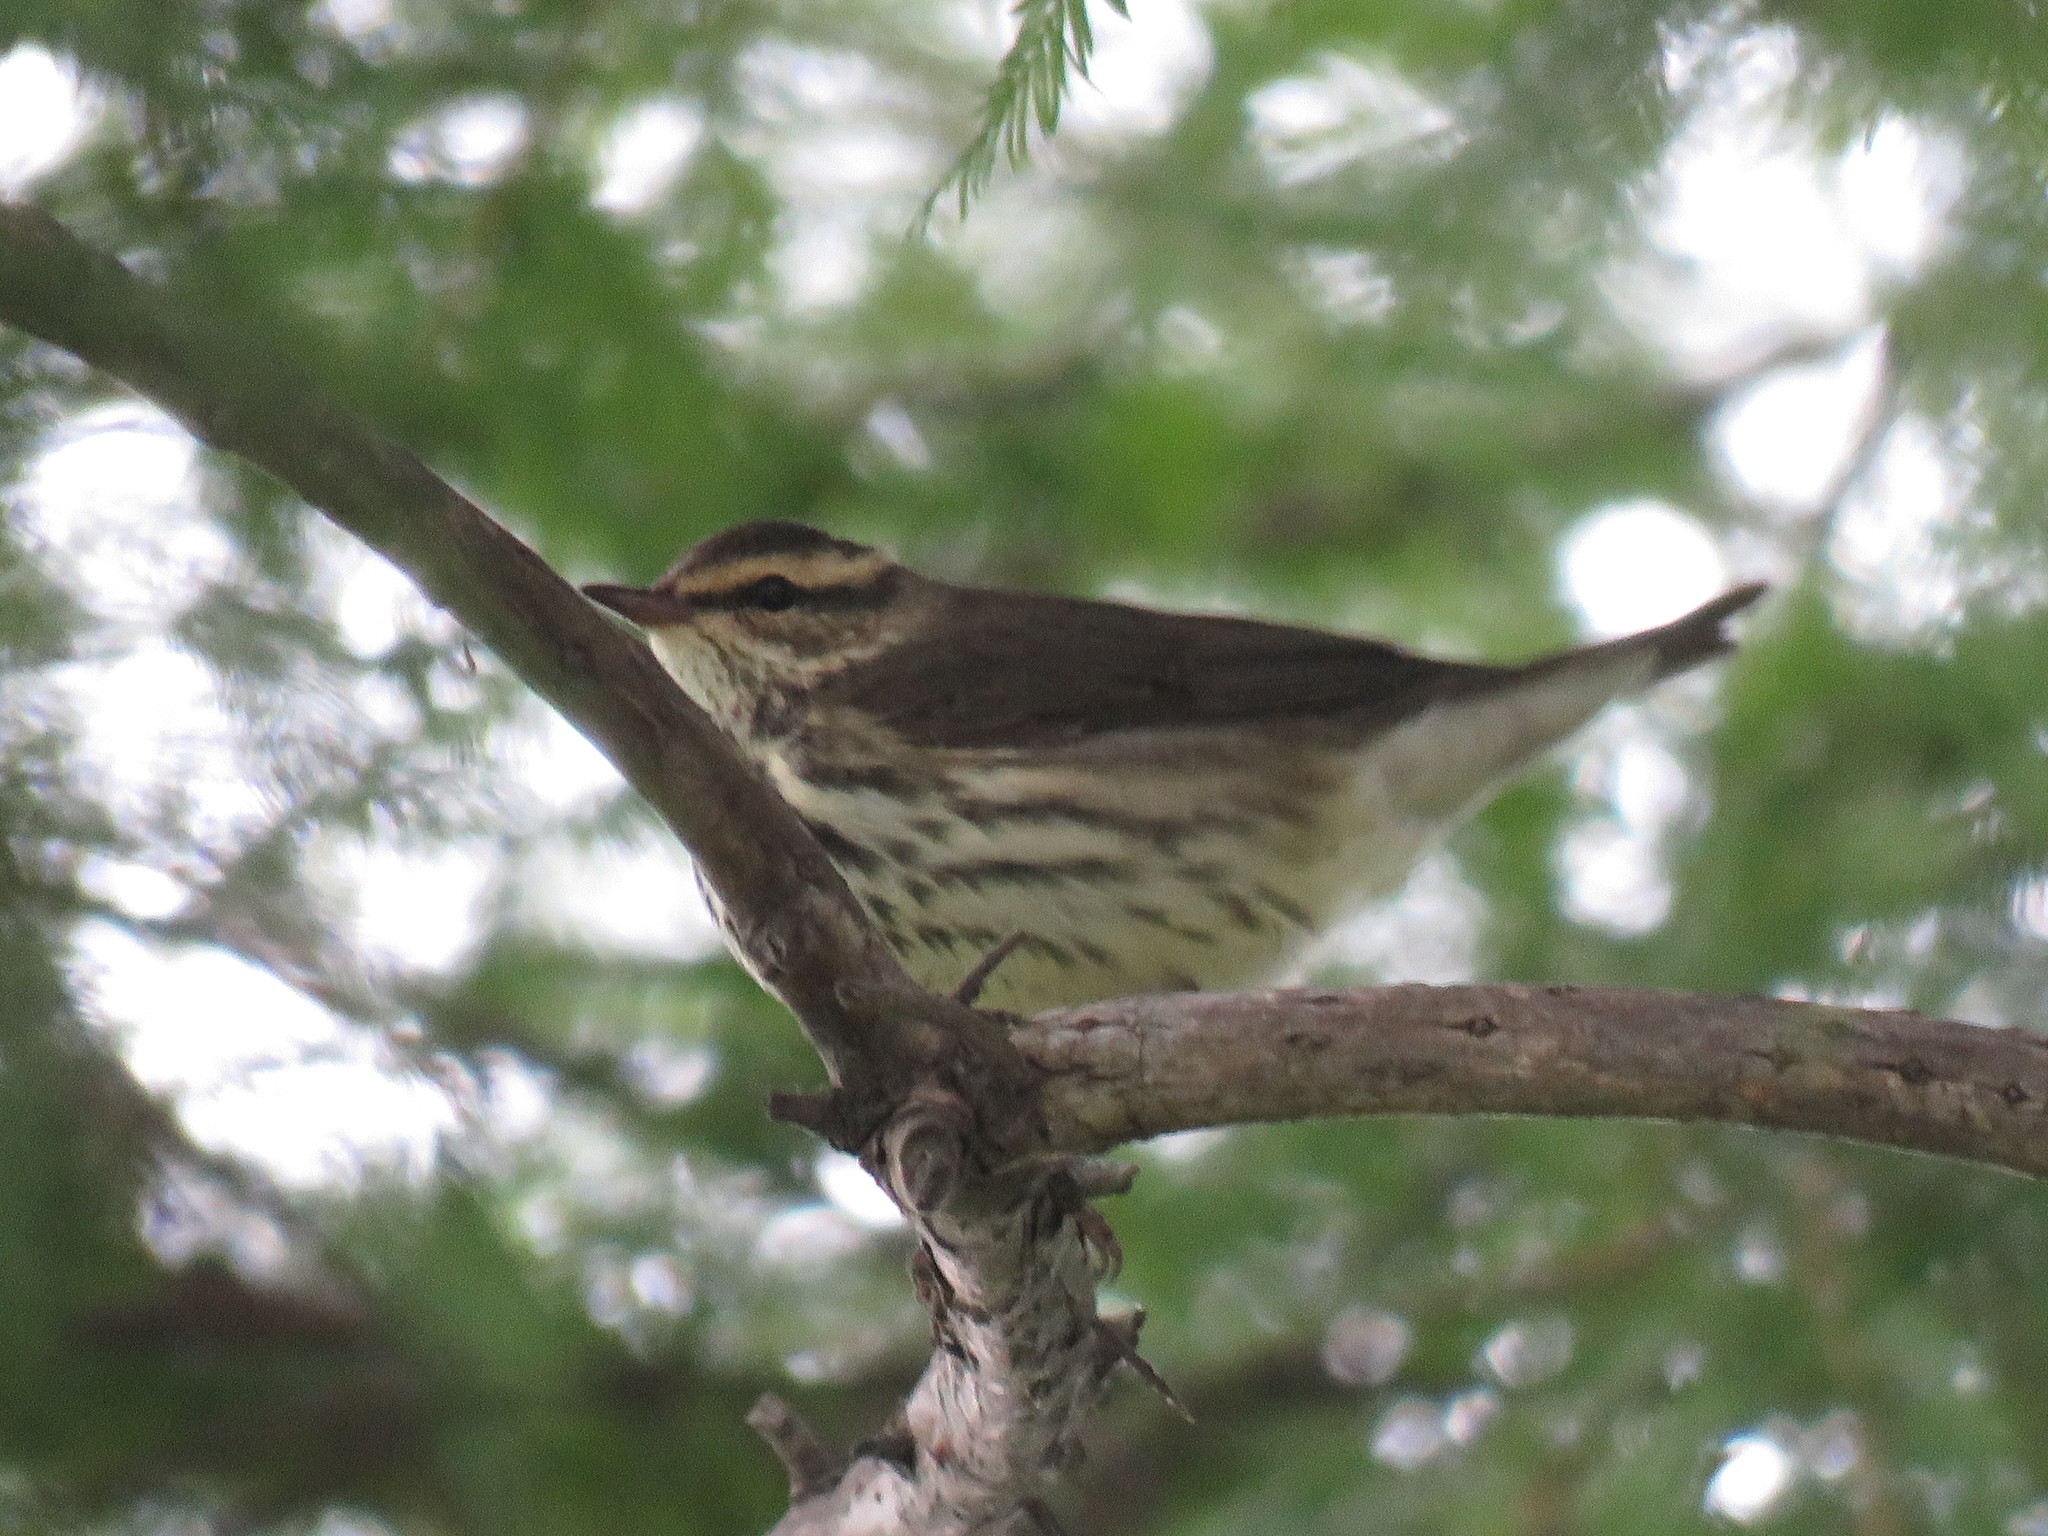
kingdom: Animalia
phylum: Chordata
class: Aves
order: Passeriformes
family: Parulidae
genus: Parkesia
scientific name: Parkesia noveboracensis
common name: Northern waterthrush
